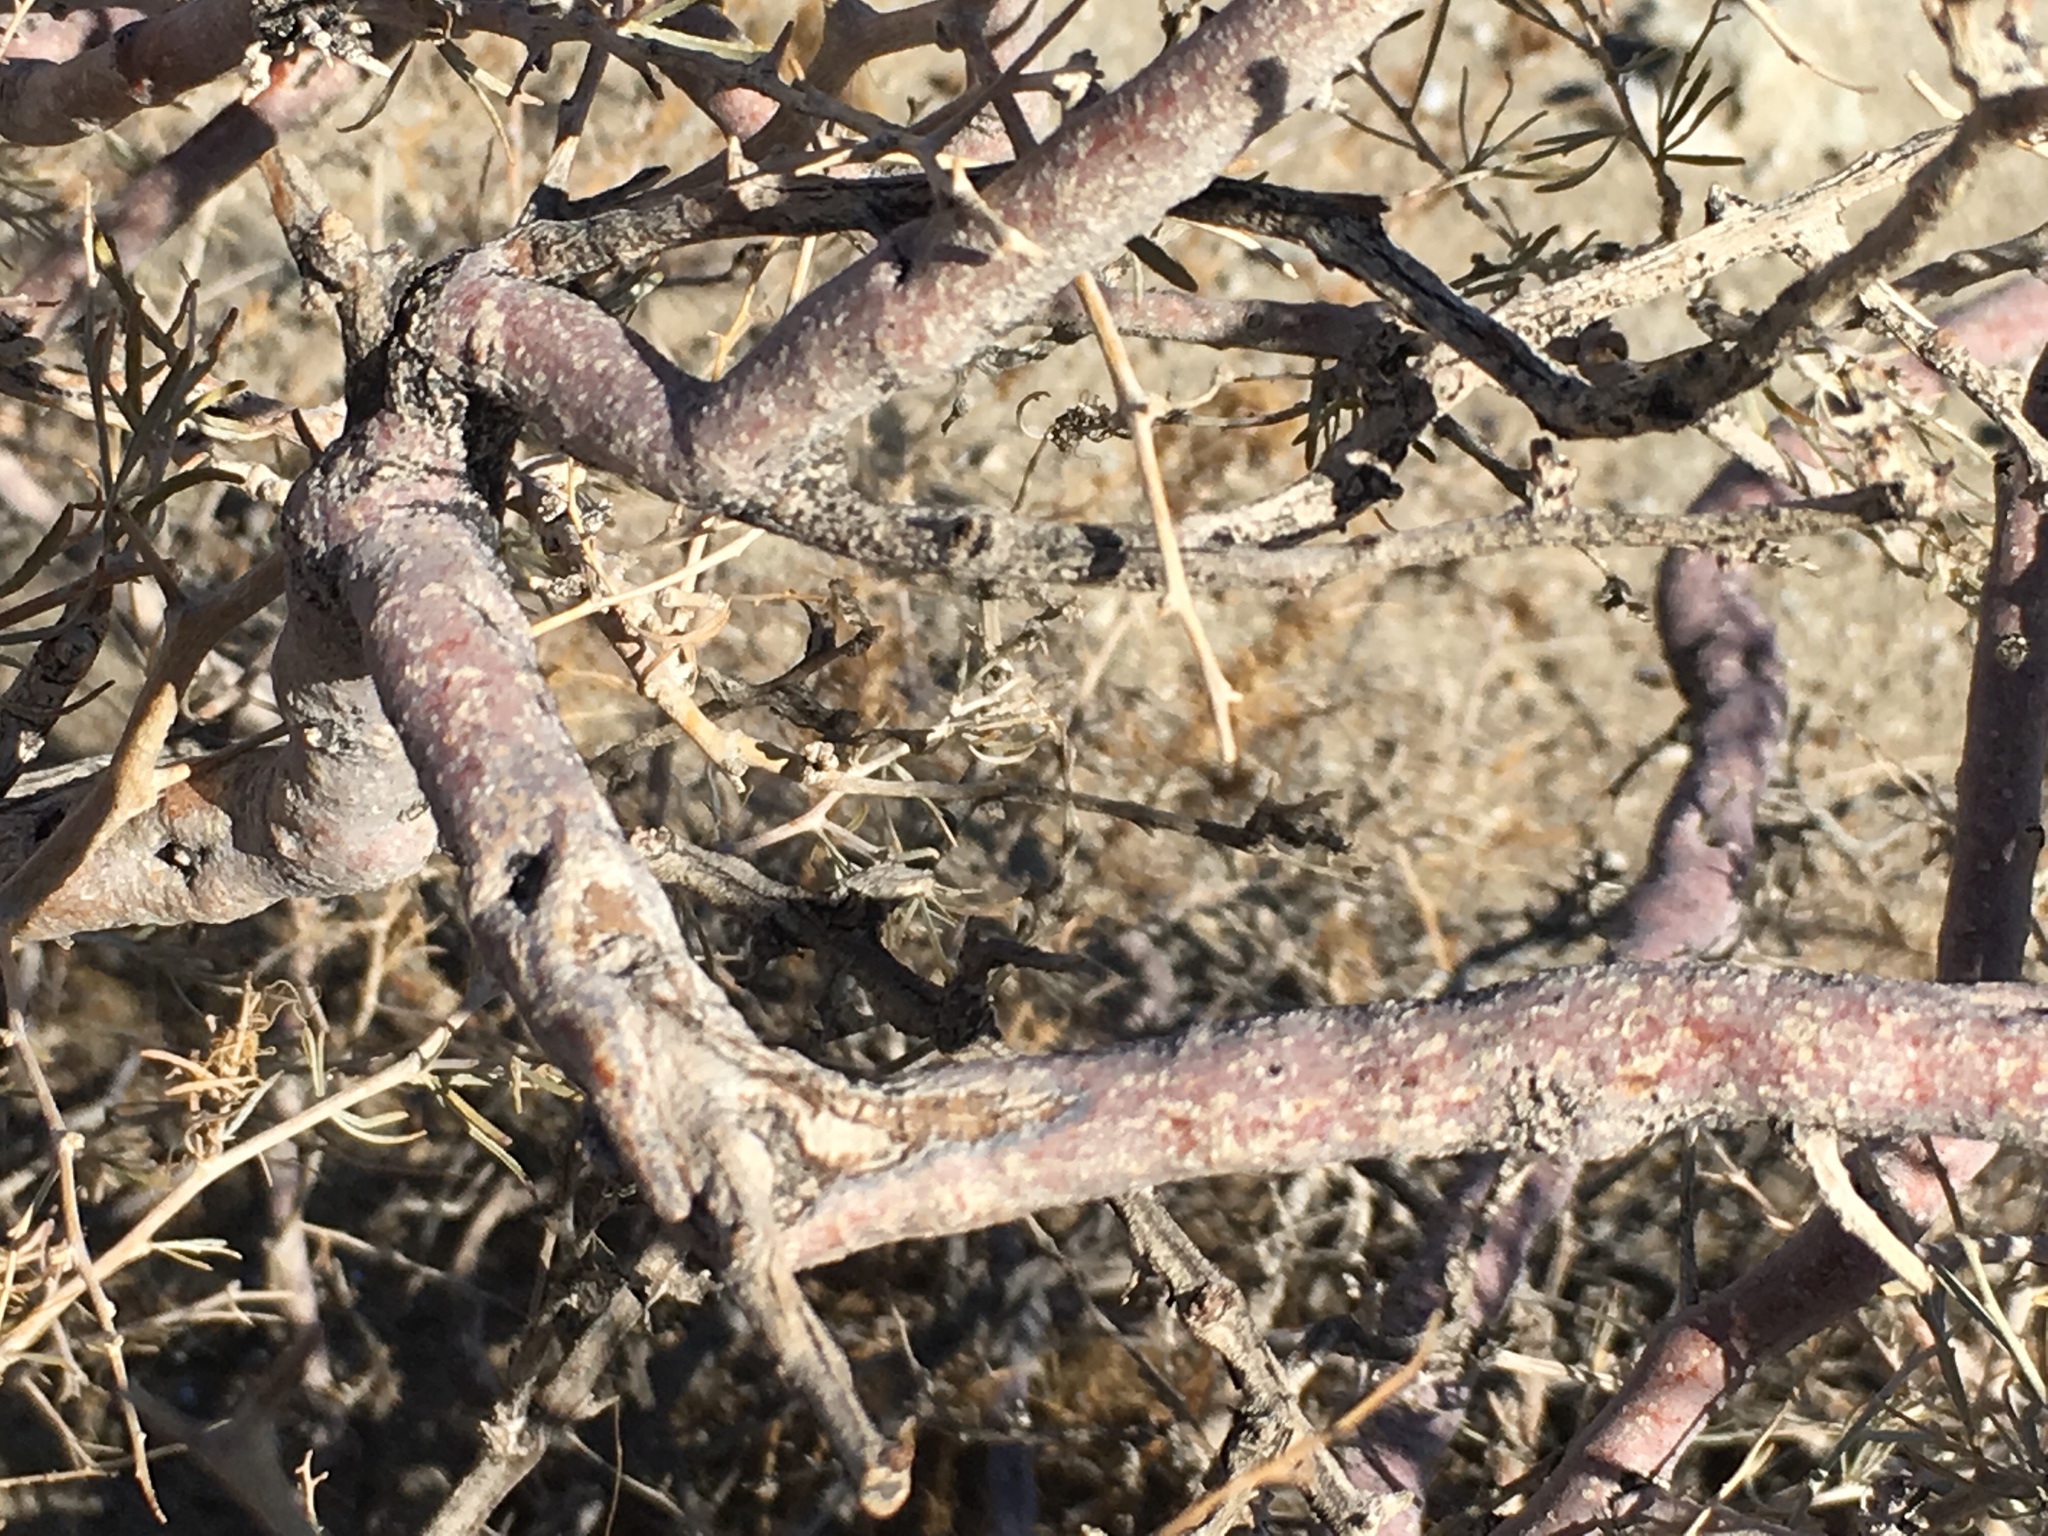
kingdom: Plantae
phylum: Tracheophyta
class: Magnoliopsida
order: Fabales
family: Fabaceae
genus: Psorothamnus
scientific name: Psorothamnus schottii
